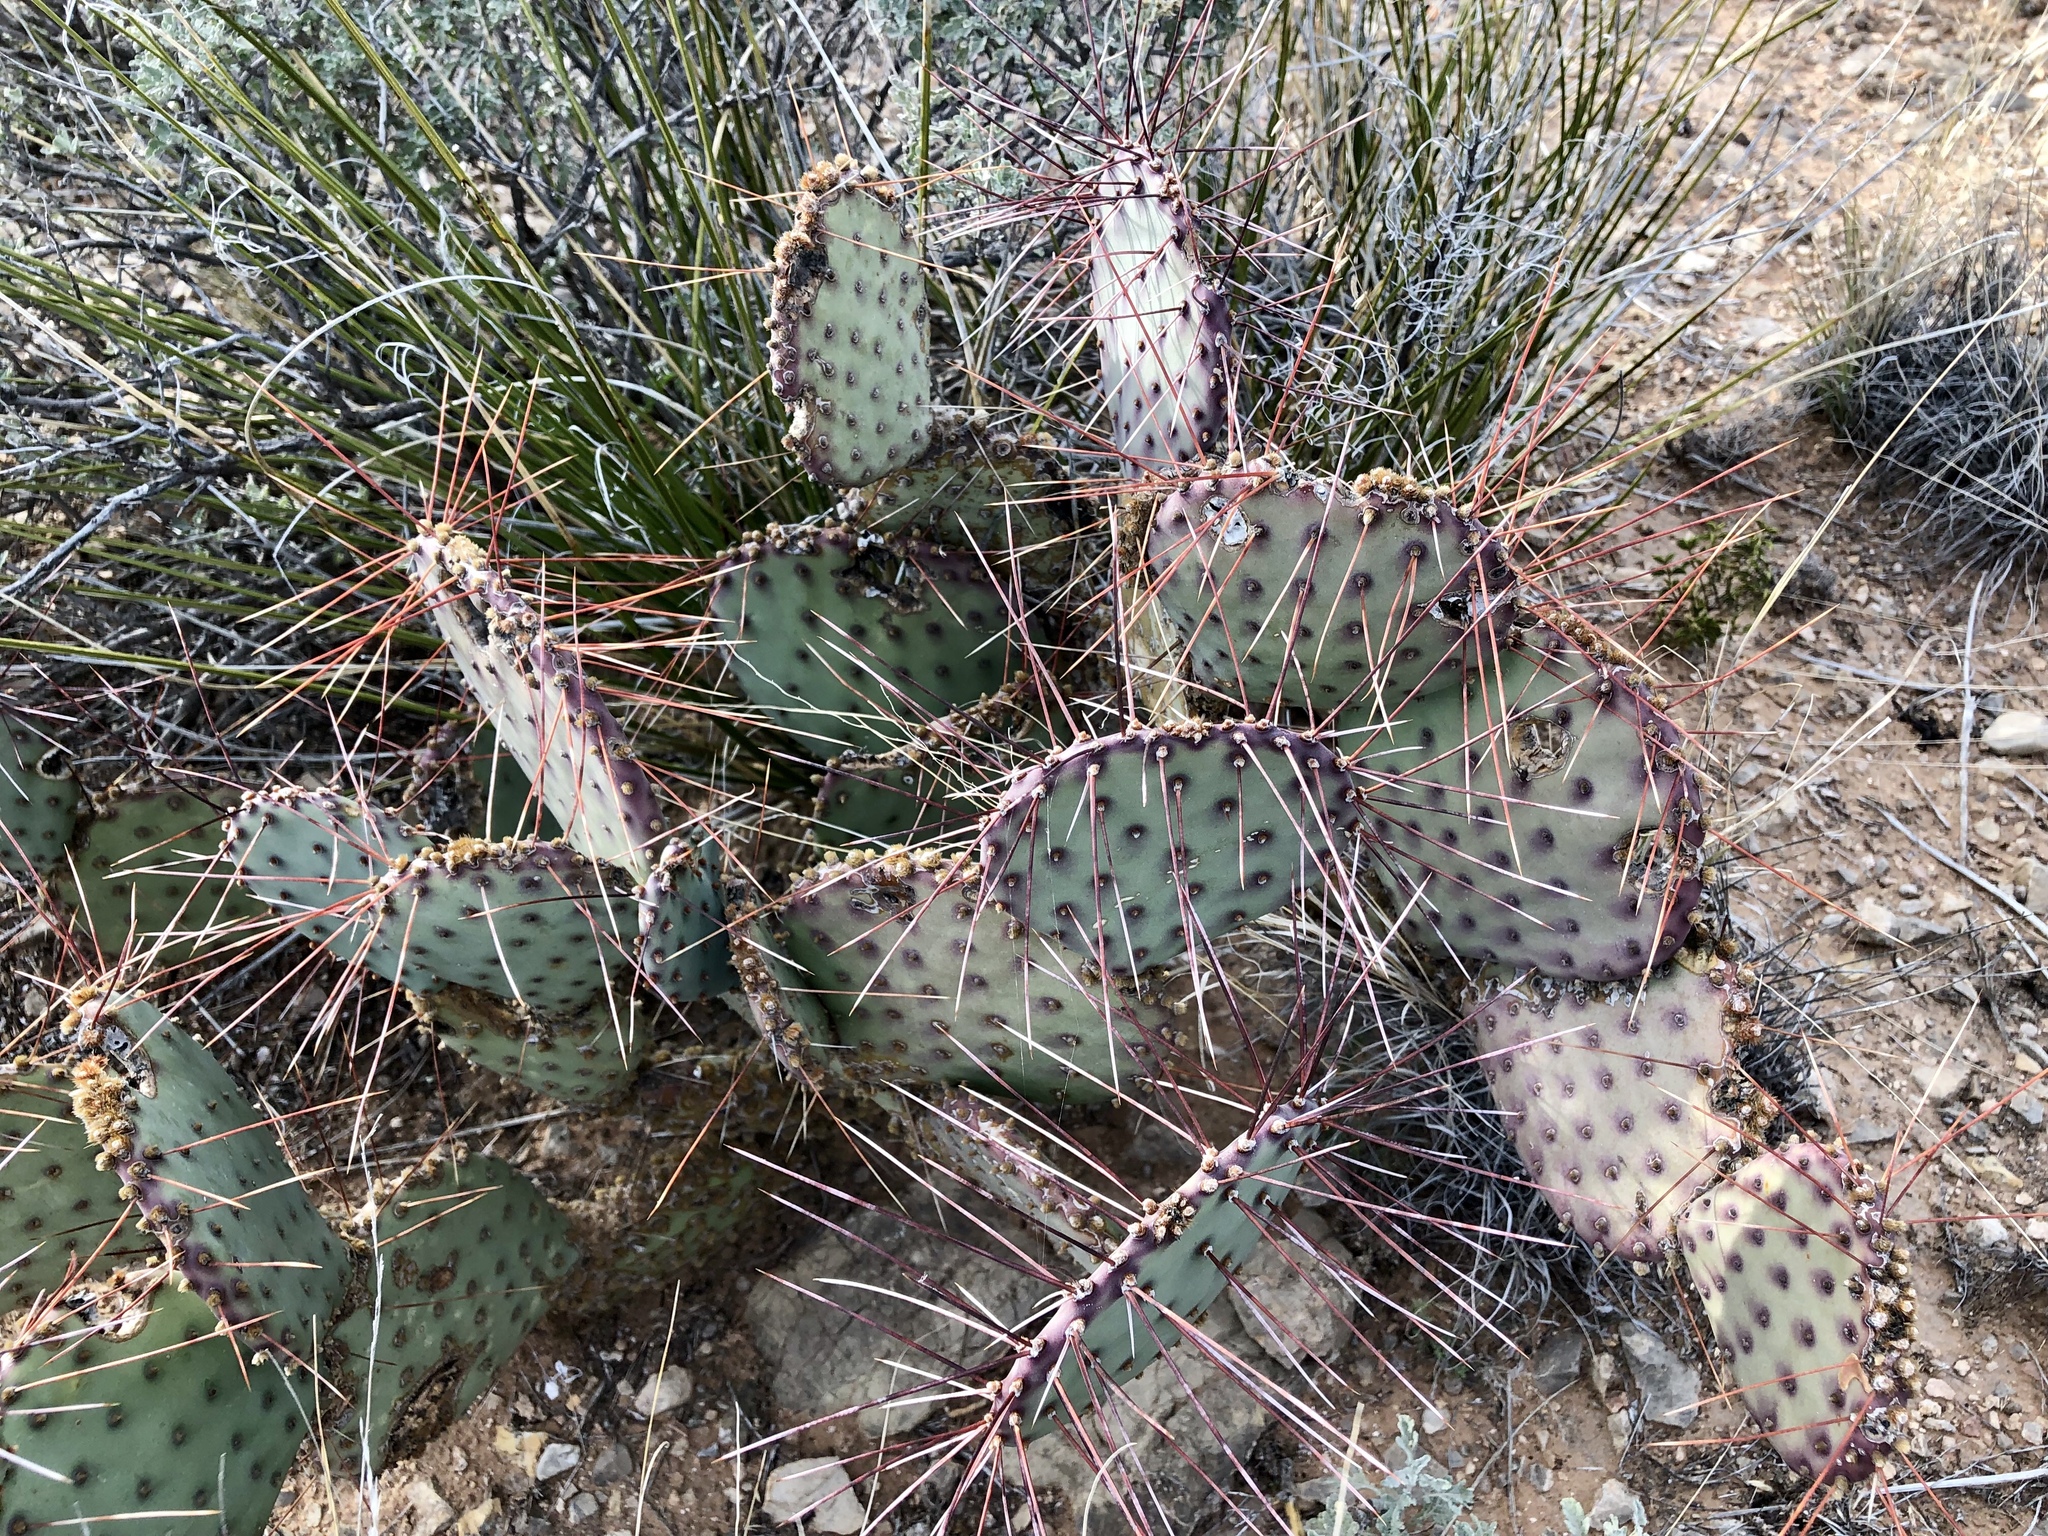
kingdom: Plantae
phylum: Tracheophyta
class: Magnoliopsida
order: Caryophyllales
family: Cactaceae
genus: Opuntia
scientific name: Opuntia macrocentra
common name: Purple prickly-pear
